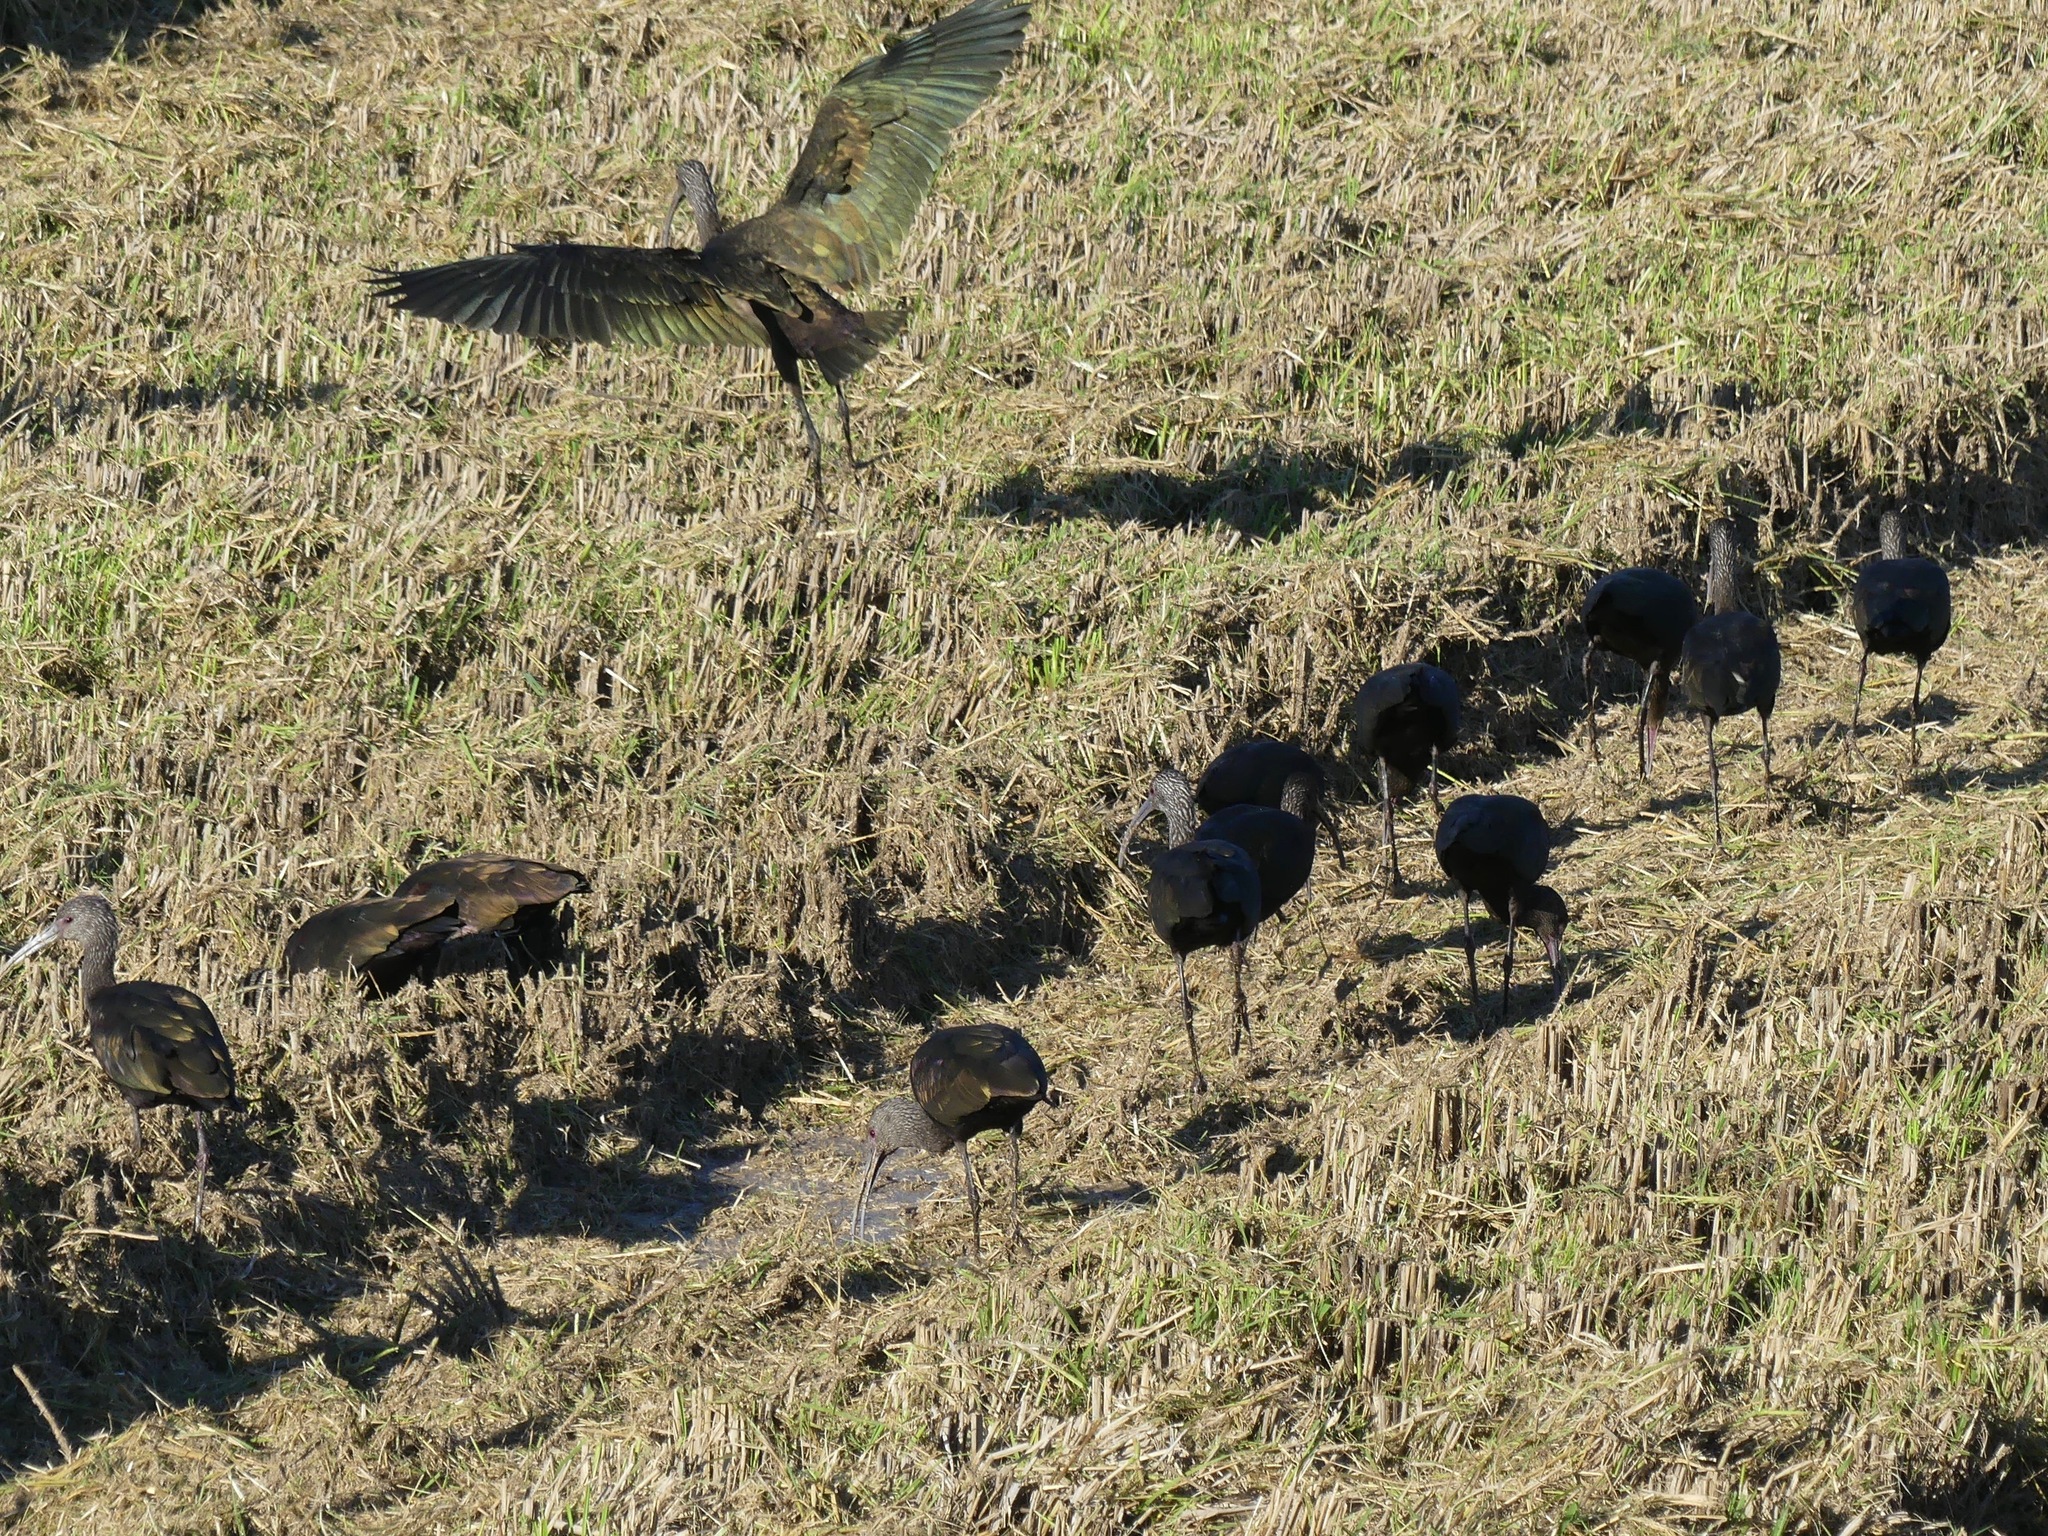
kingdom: Animalia
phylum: Chordata
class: Aves
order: Pelecaniformes
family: Threskiornithidae
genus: Plegadis
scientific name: Plegadis chihi
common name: White-faced ibis
